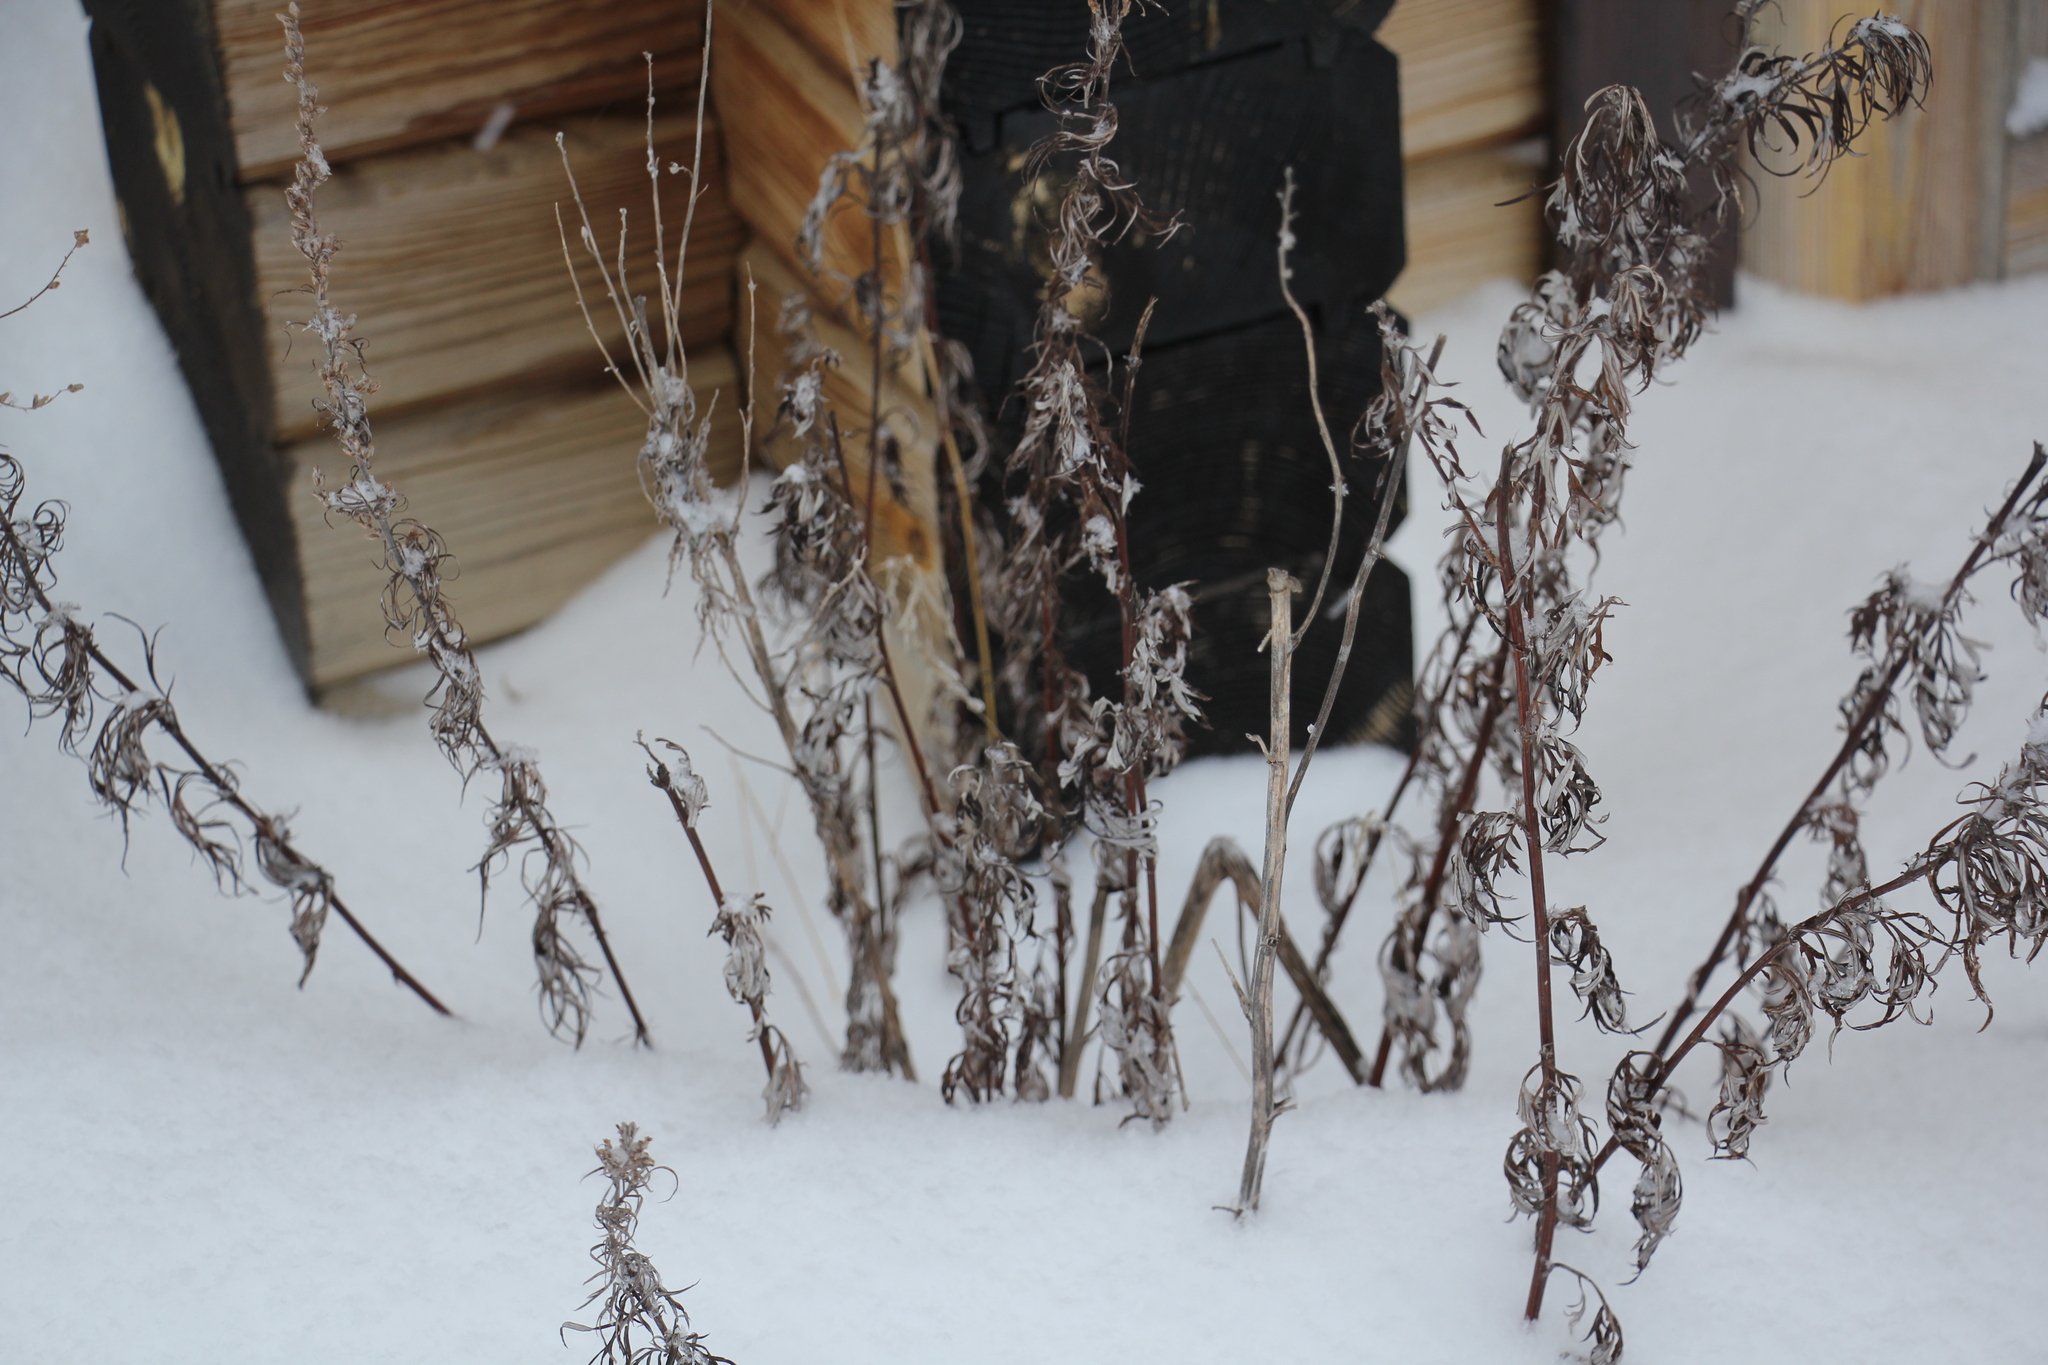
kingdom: Plantae
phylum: Tracheophyta
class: Magnoliopsida
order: Asterales
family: Asteraceae
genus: Artemisia
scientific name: Artemisia vulgaris
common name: Mugwort
